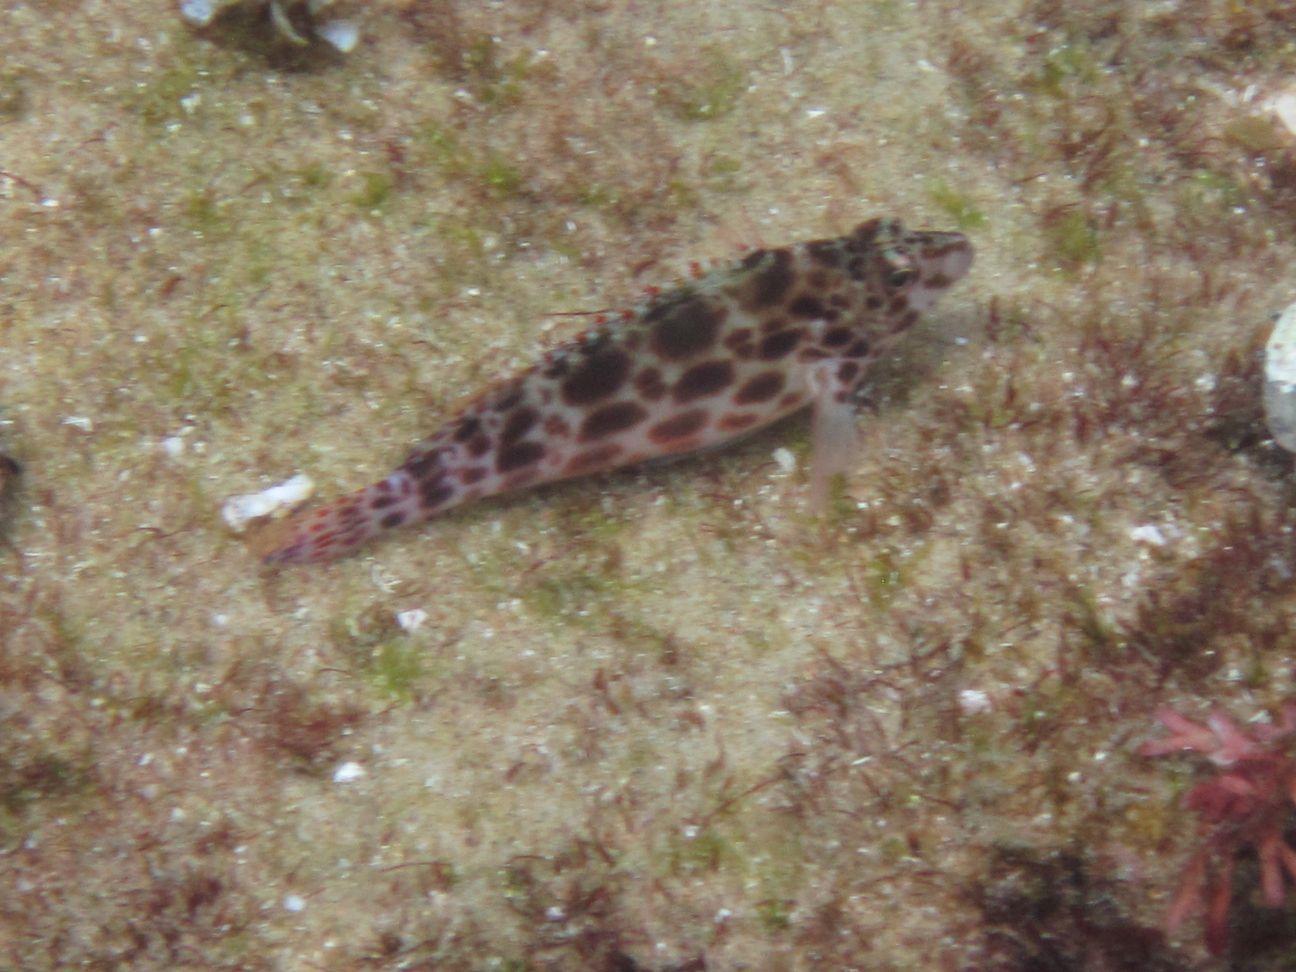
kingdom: Animalia
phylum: Chordata
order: Perciformes
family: Cirrhitidae
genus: Cirrhitichthys
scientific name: Cirrhitichthys oxycephalus
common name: Spotted hawkfish
